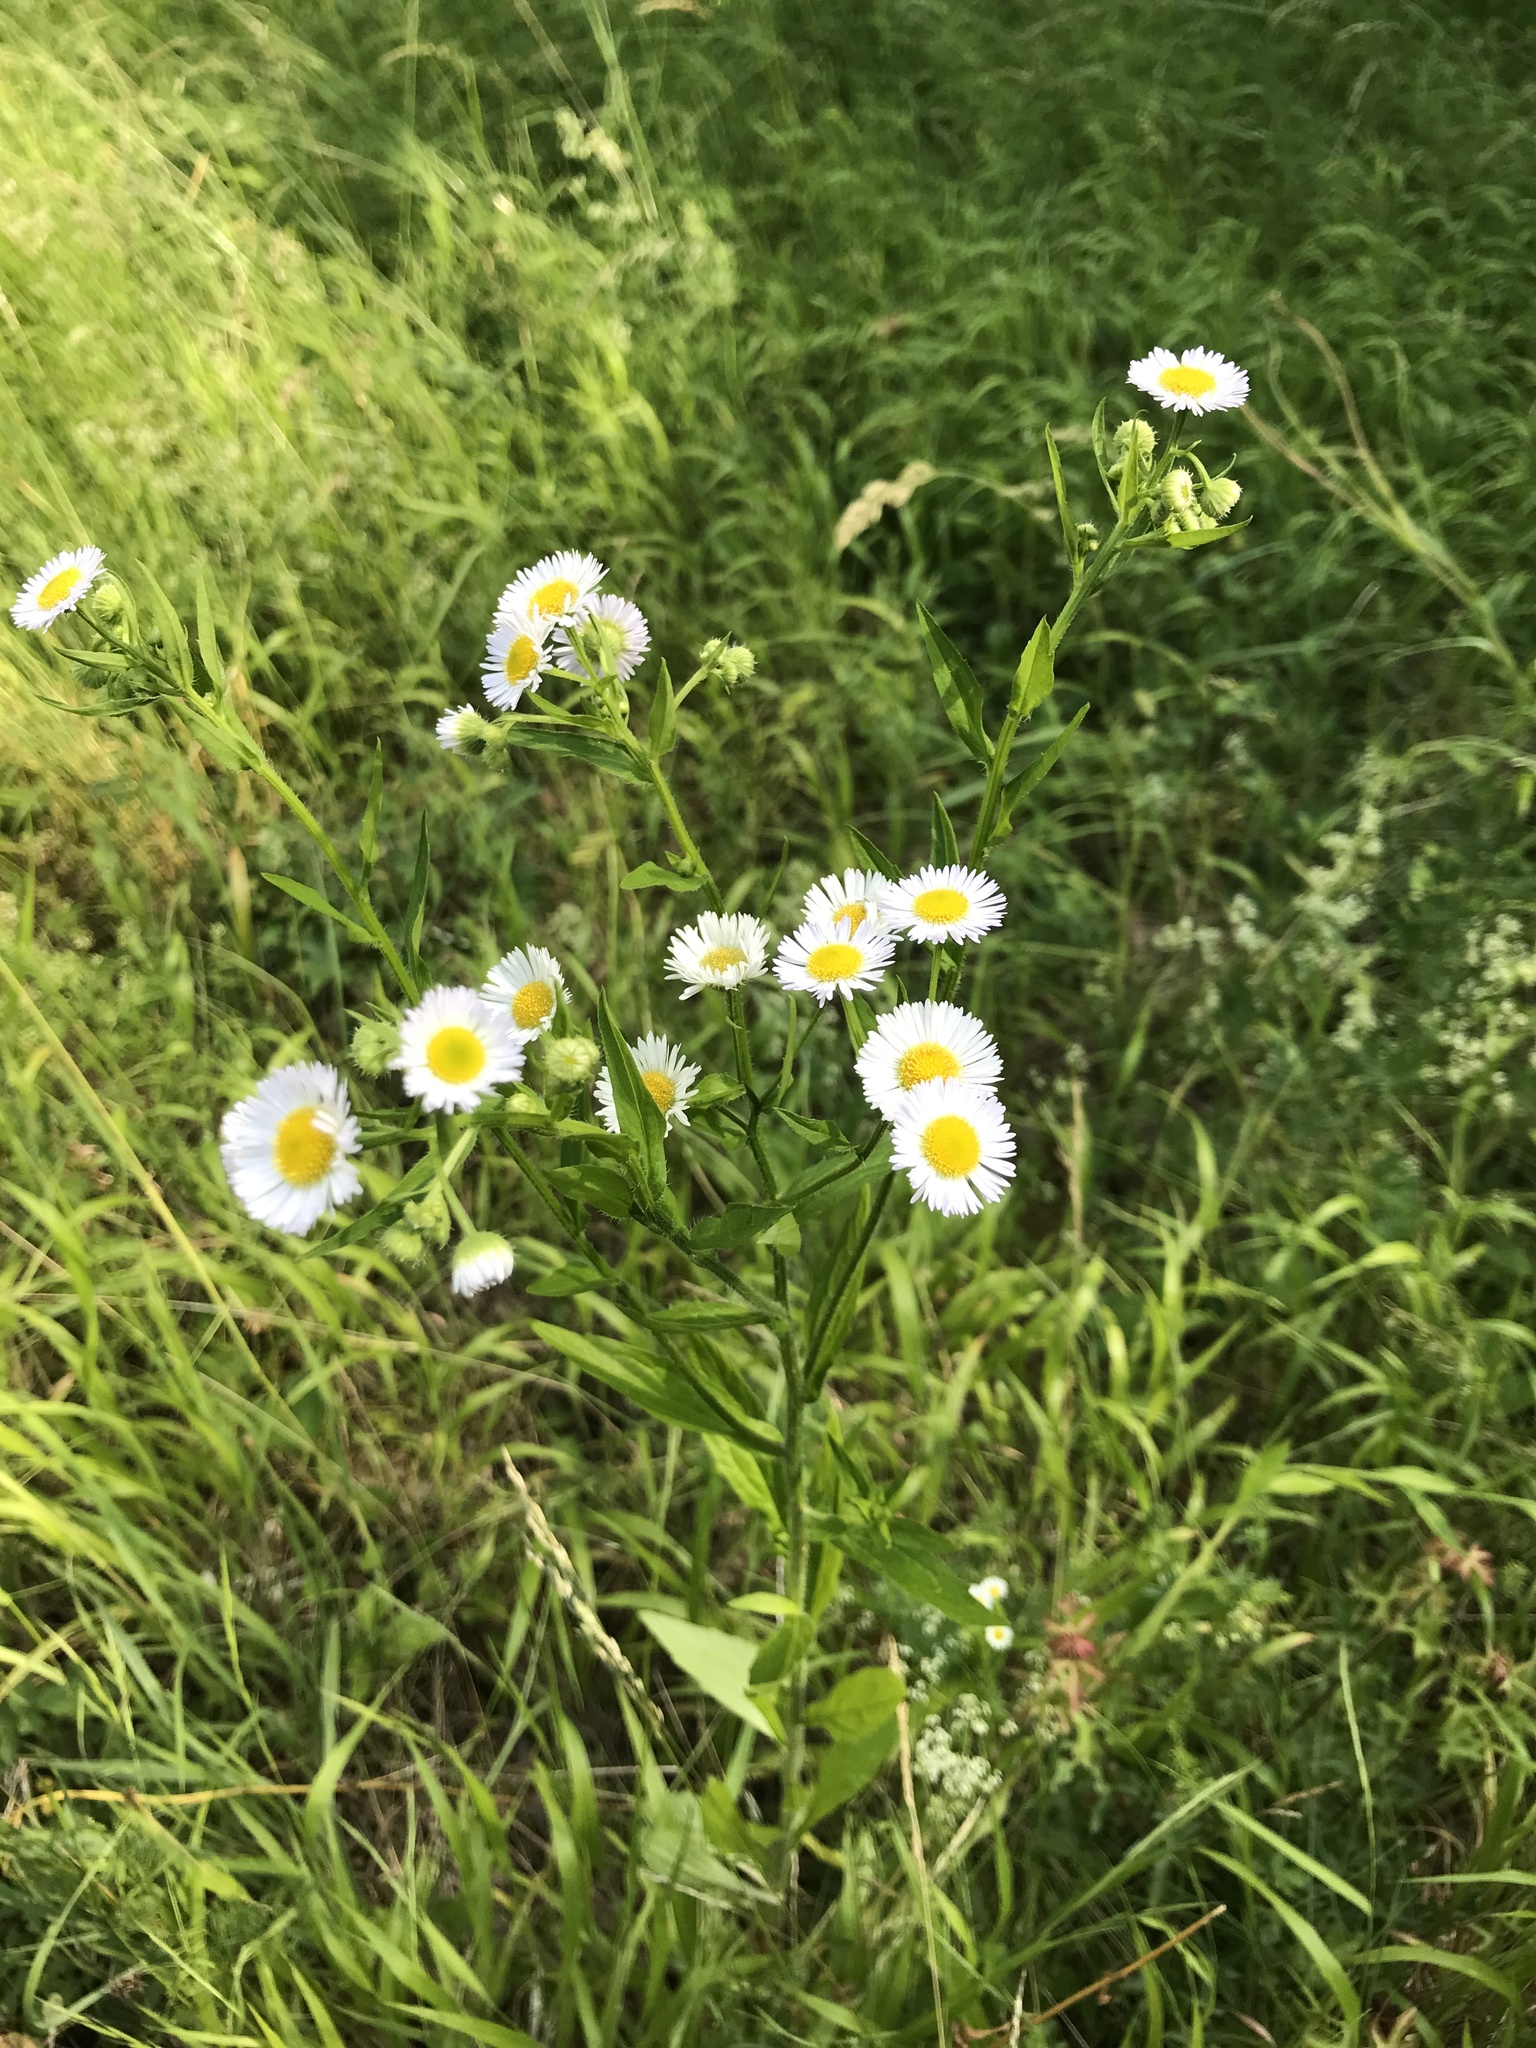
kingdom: Plantae
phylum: Tracheophyta
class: Magnoliopsida
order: Asterales
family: Asteraceae
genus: Erigeron
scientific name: Erigeron annuus
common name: Tall fleabane
